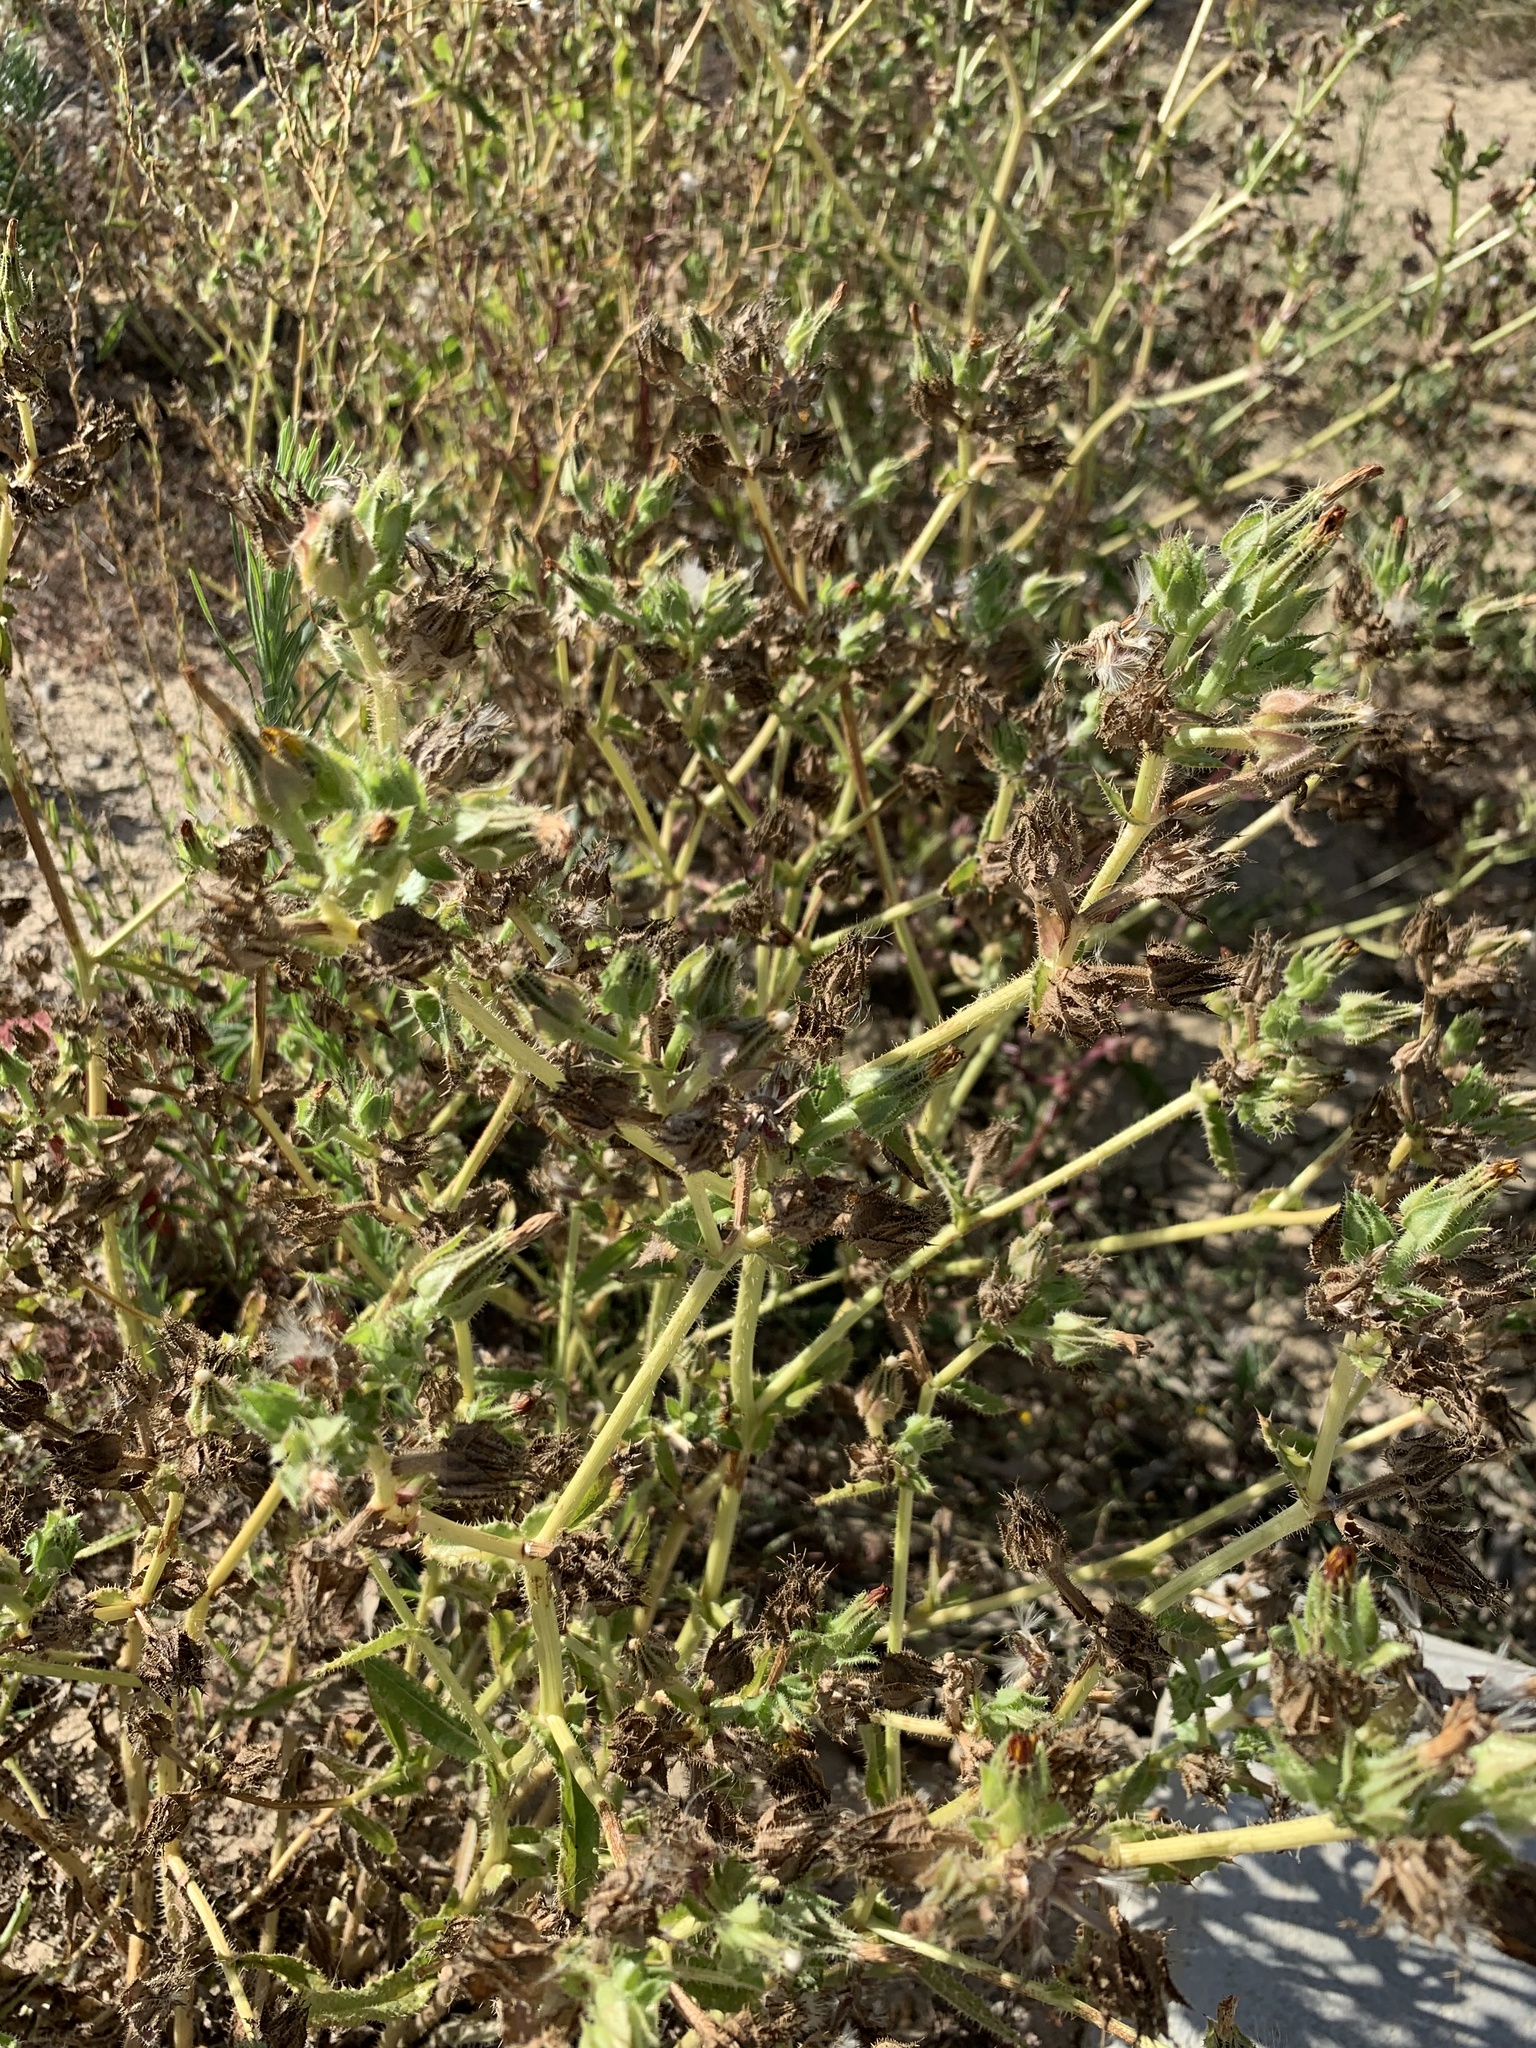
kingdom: Plantae
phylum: Tracheophyta
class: Magnoliopsida
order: Asterales
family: Asteraceae
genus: Helminthotheca
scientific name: Helminthotheca echioides
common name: Ox-tongue
